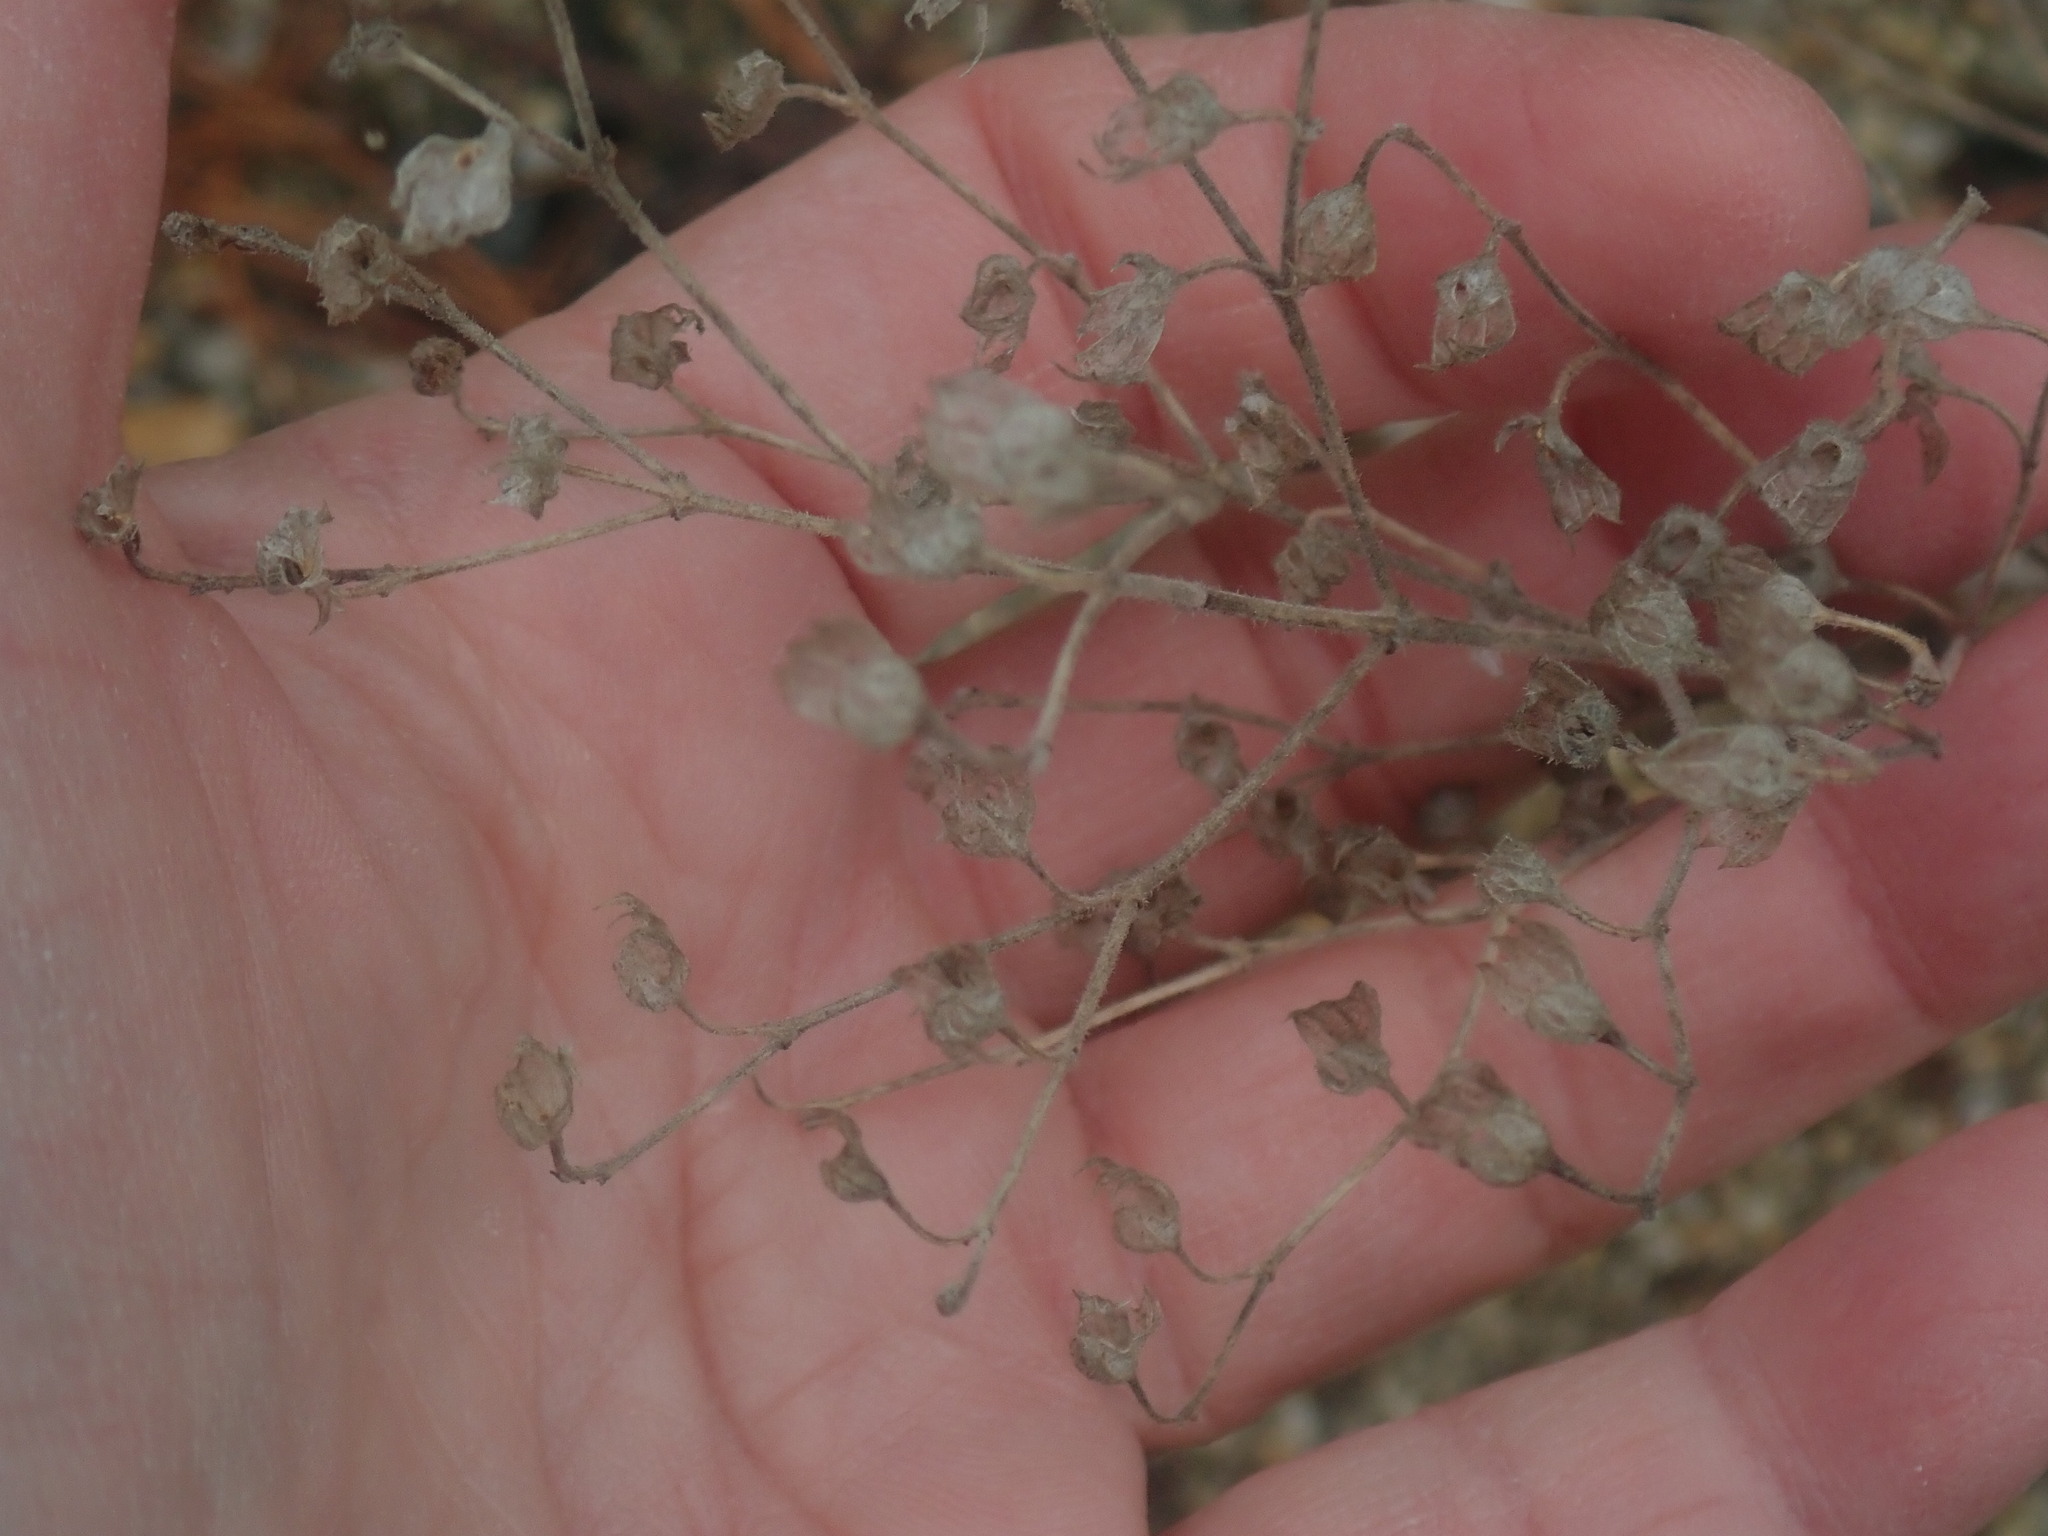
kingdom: Plantae
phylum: Tracheophyta
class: Magnoliopsida
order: Lamiales
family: Lamiaceae
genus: Trichostema
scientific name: Trichostema dichotomum
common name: Bastard pennyroyal
